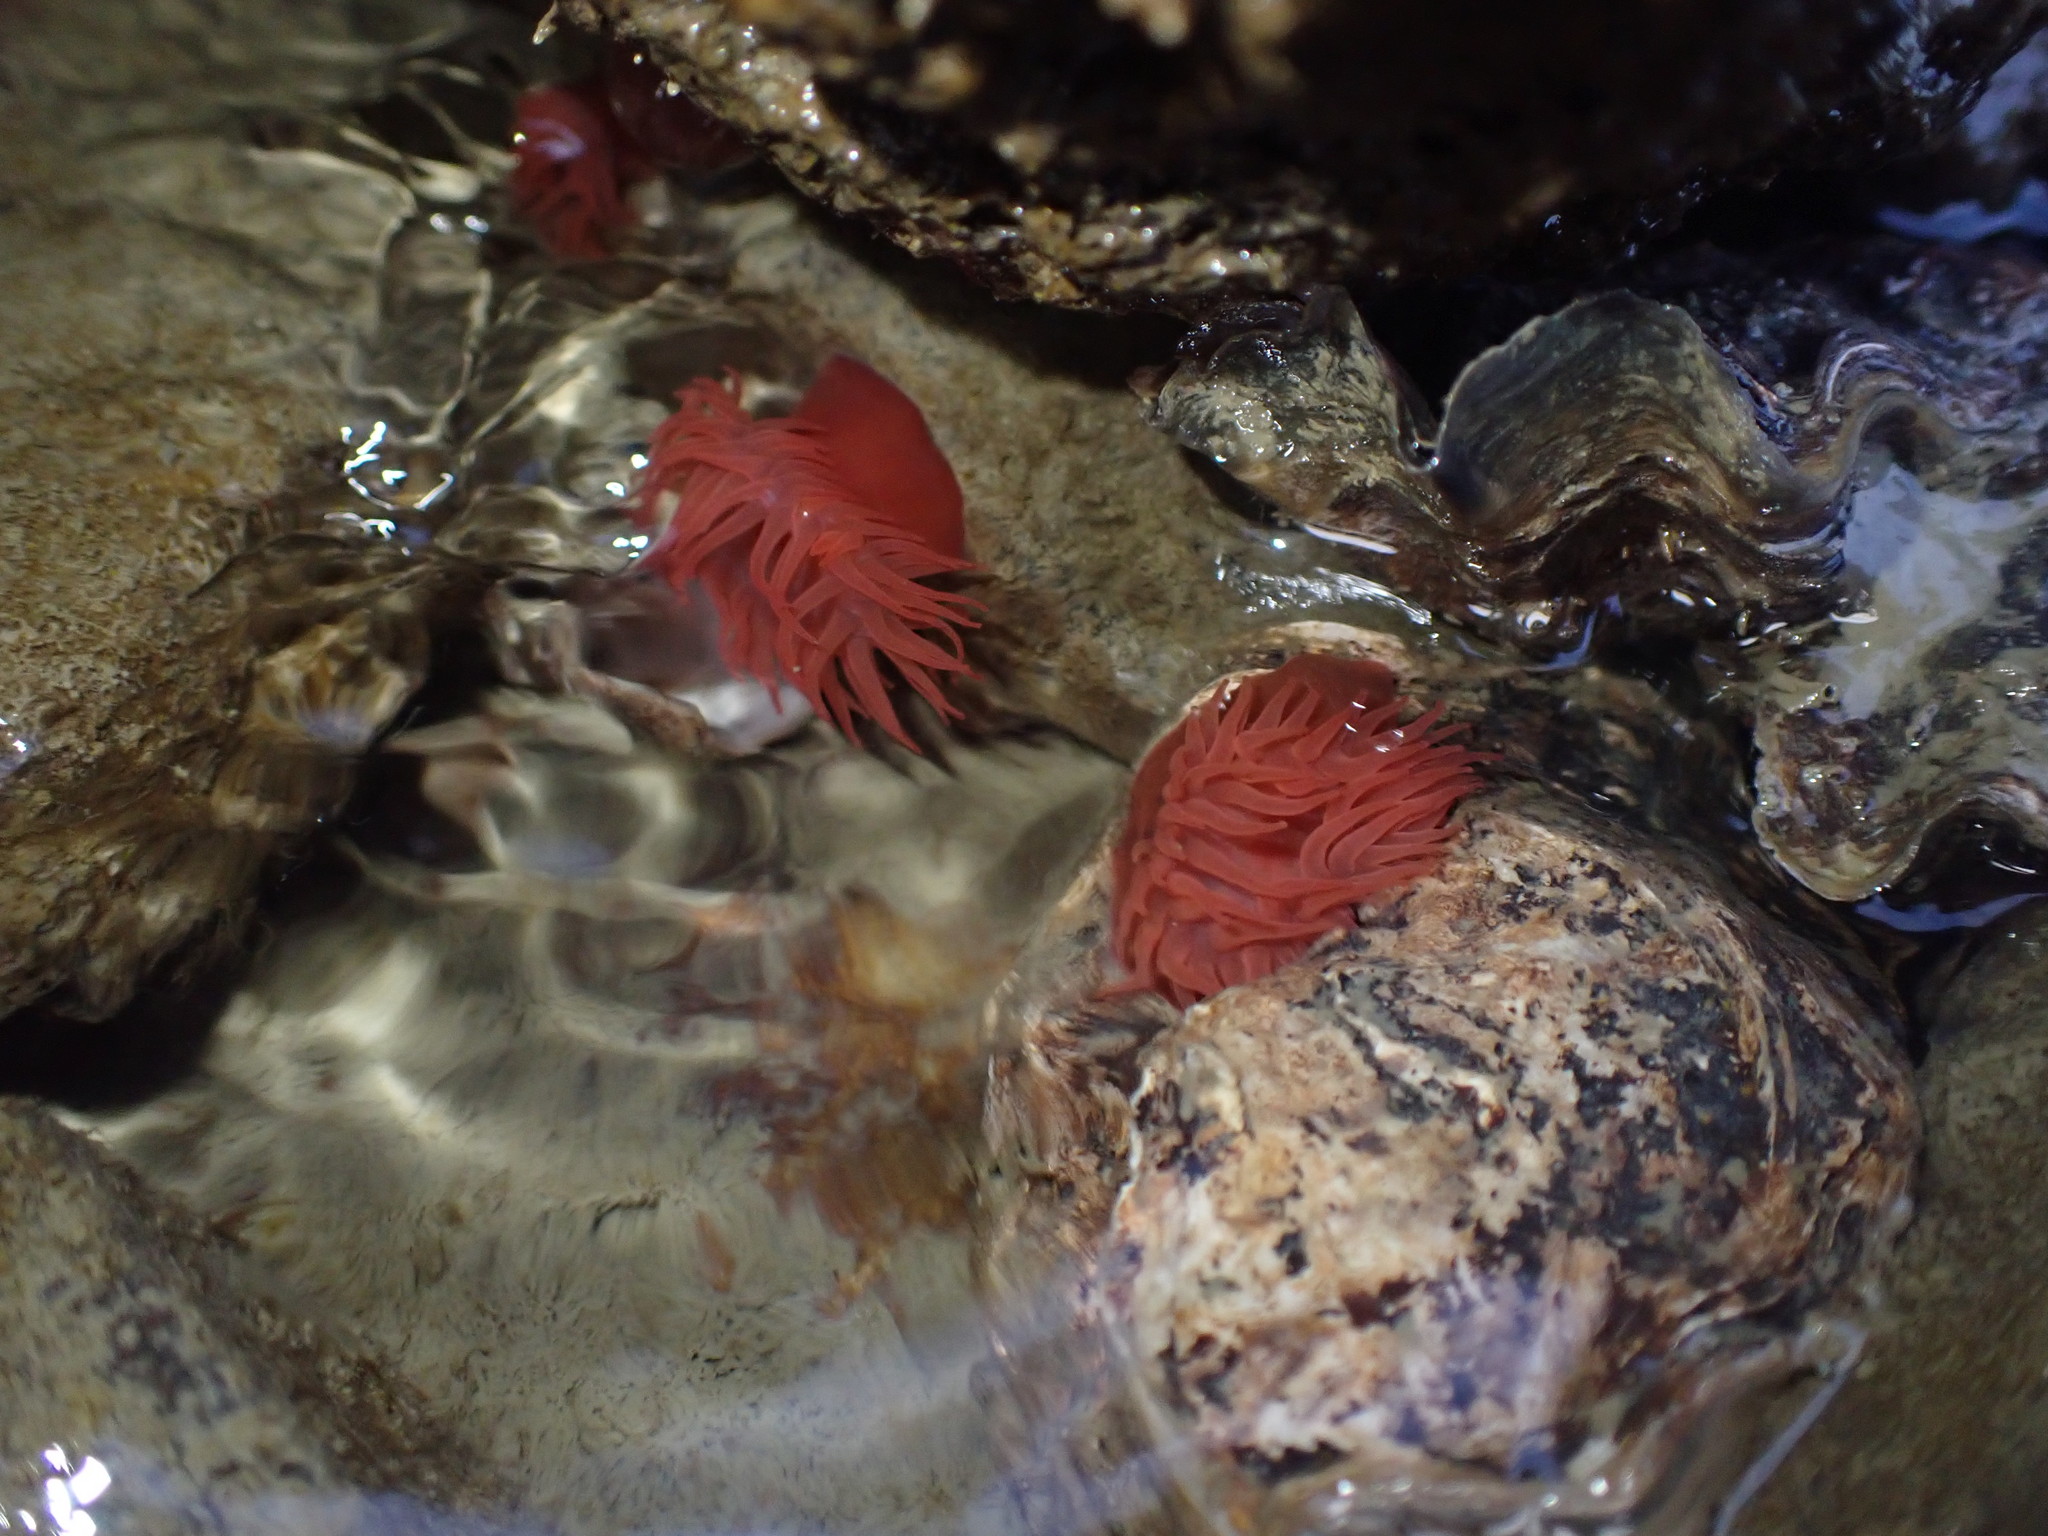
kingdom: Animalia
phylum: Cnidaria
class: Anthozoa
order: Actiniaria
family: Actiniidae
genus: Actinia
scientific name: Actinia tenebrosa
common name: Waratah anemone
